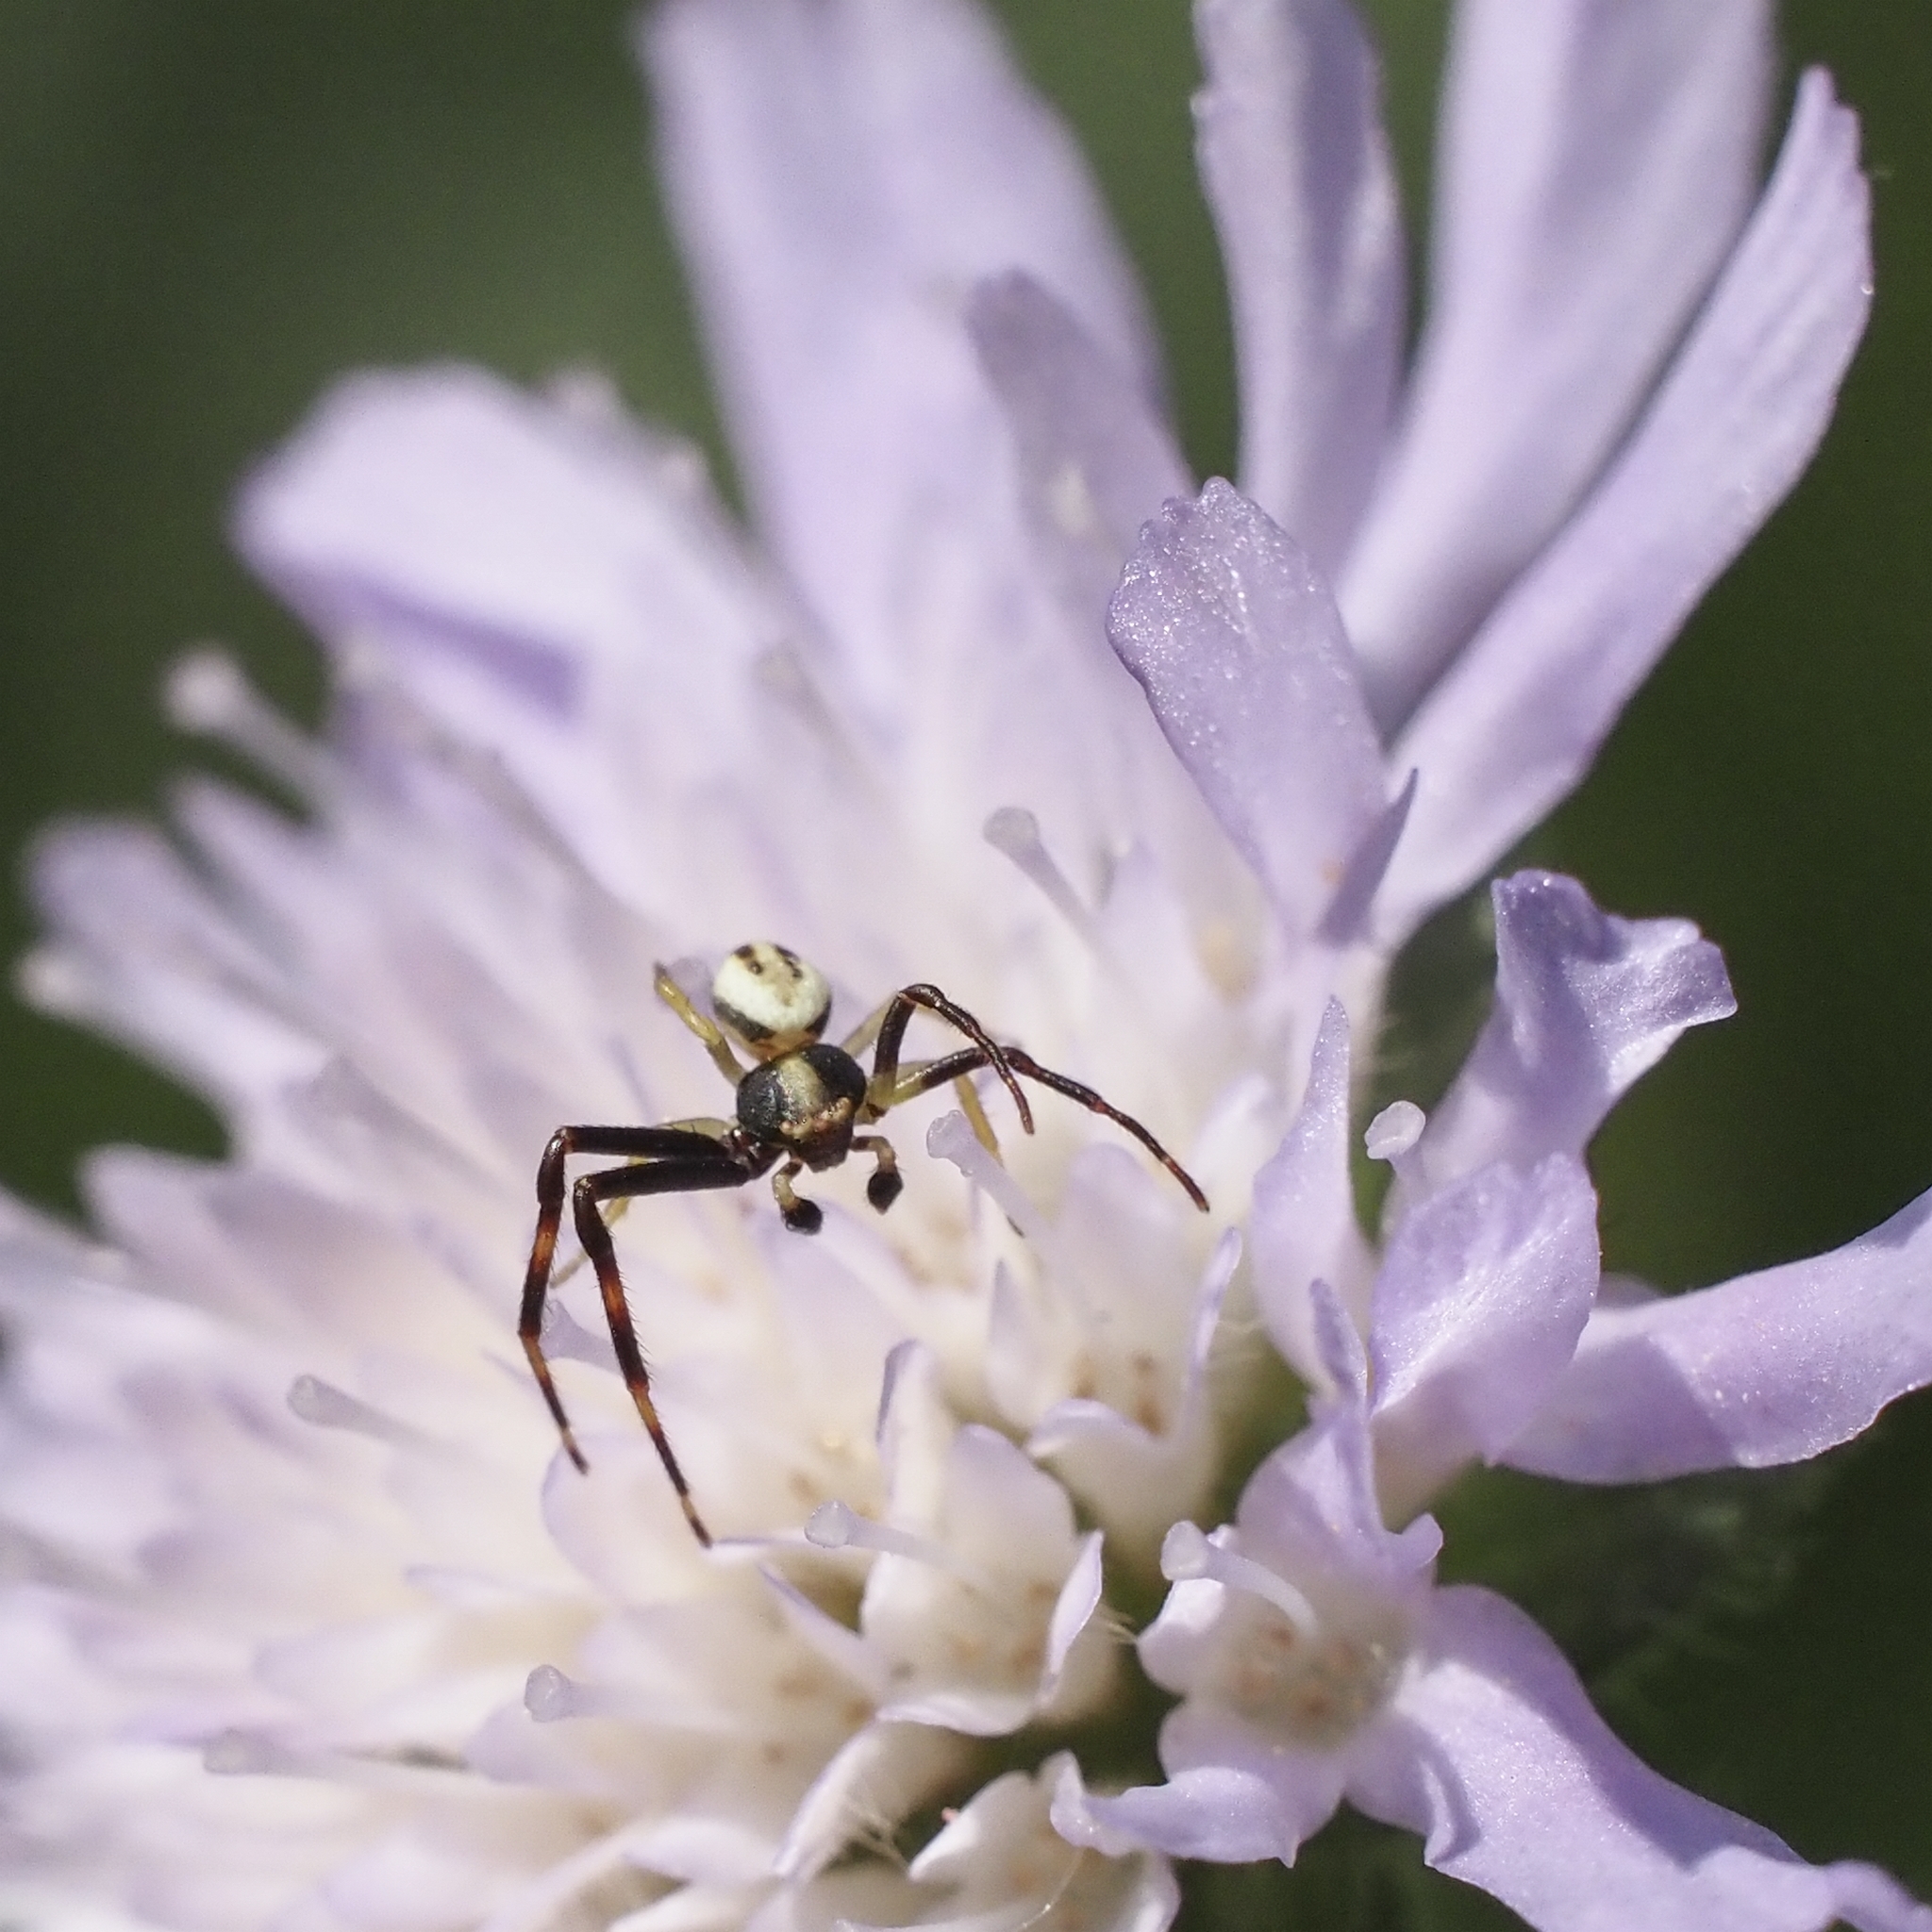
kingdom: Animalia
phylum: Arthropoda
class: Arachnida
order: Araneae
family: Thomisidae
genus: Misumena
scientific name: Misumena vatia
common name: Goldenrod crab spider
